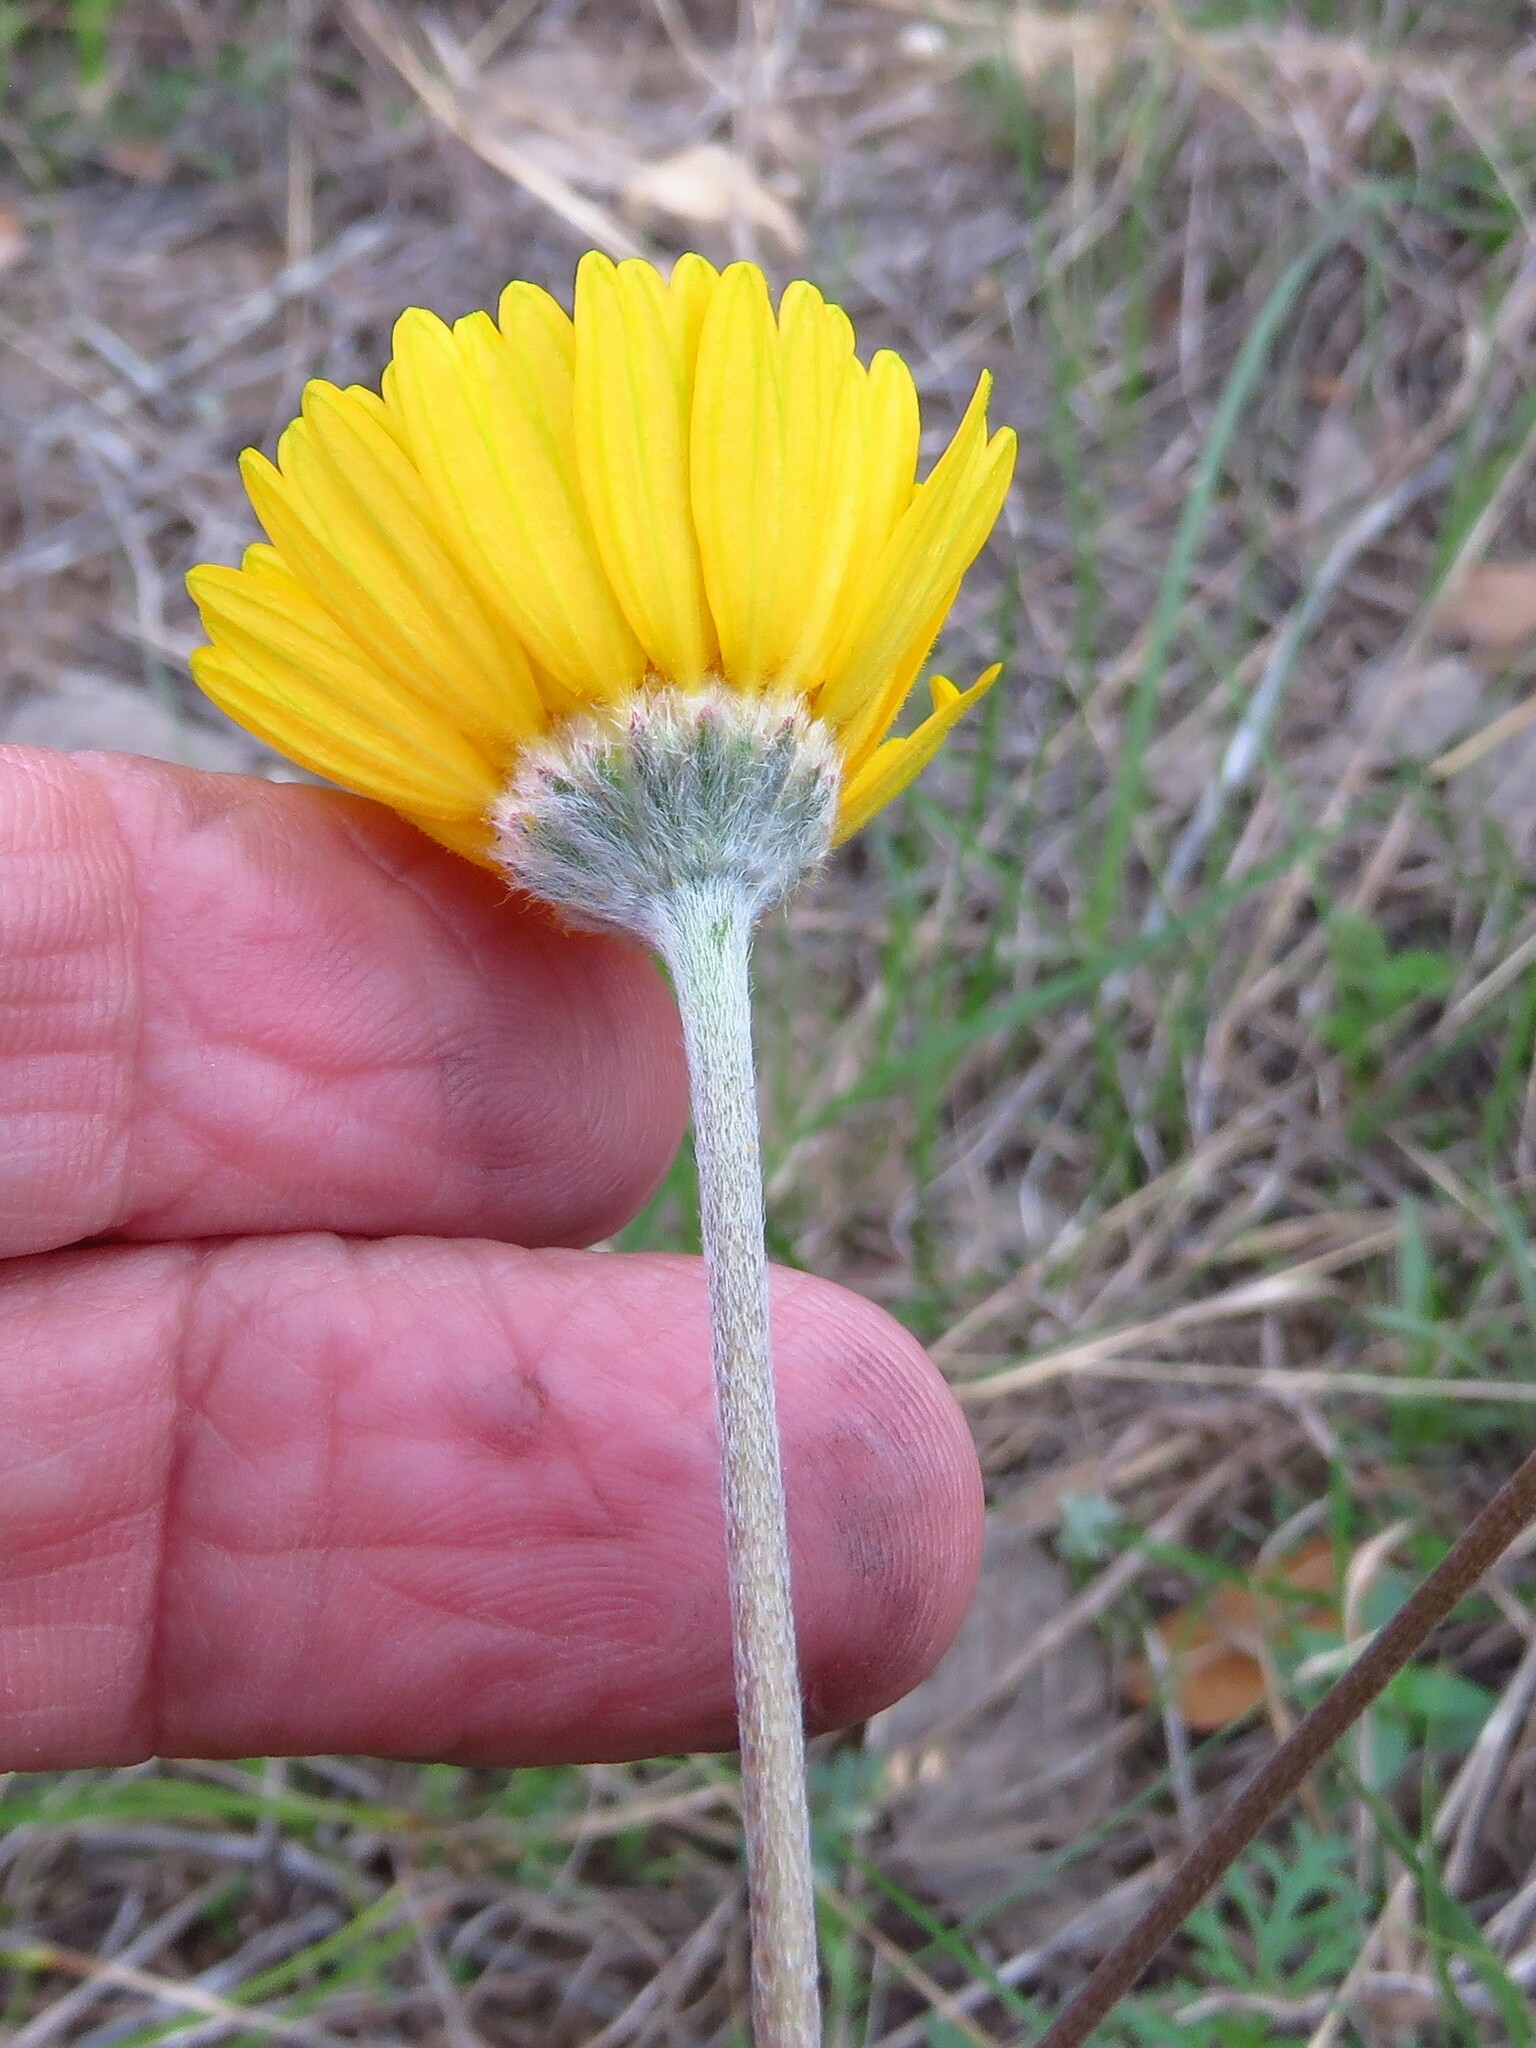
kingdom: Plantae
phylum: Tracheophyta
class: Magnoliopsida
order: Asterales
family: Asteraceae
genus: Tetraneuris
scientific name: Tetraneuris scaposa
